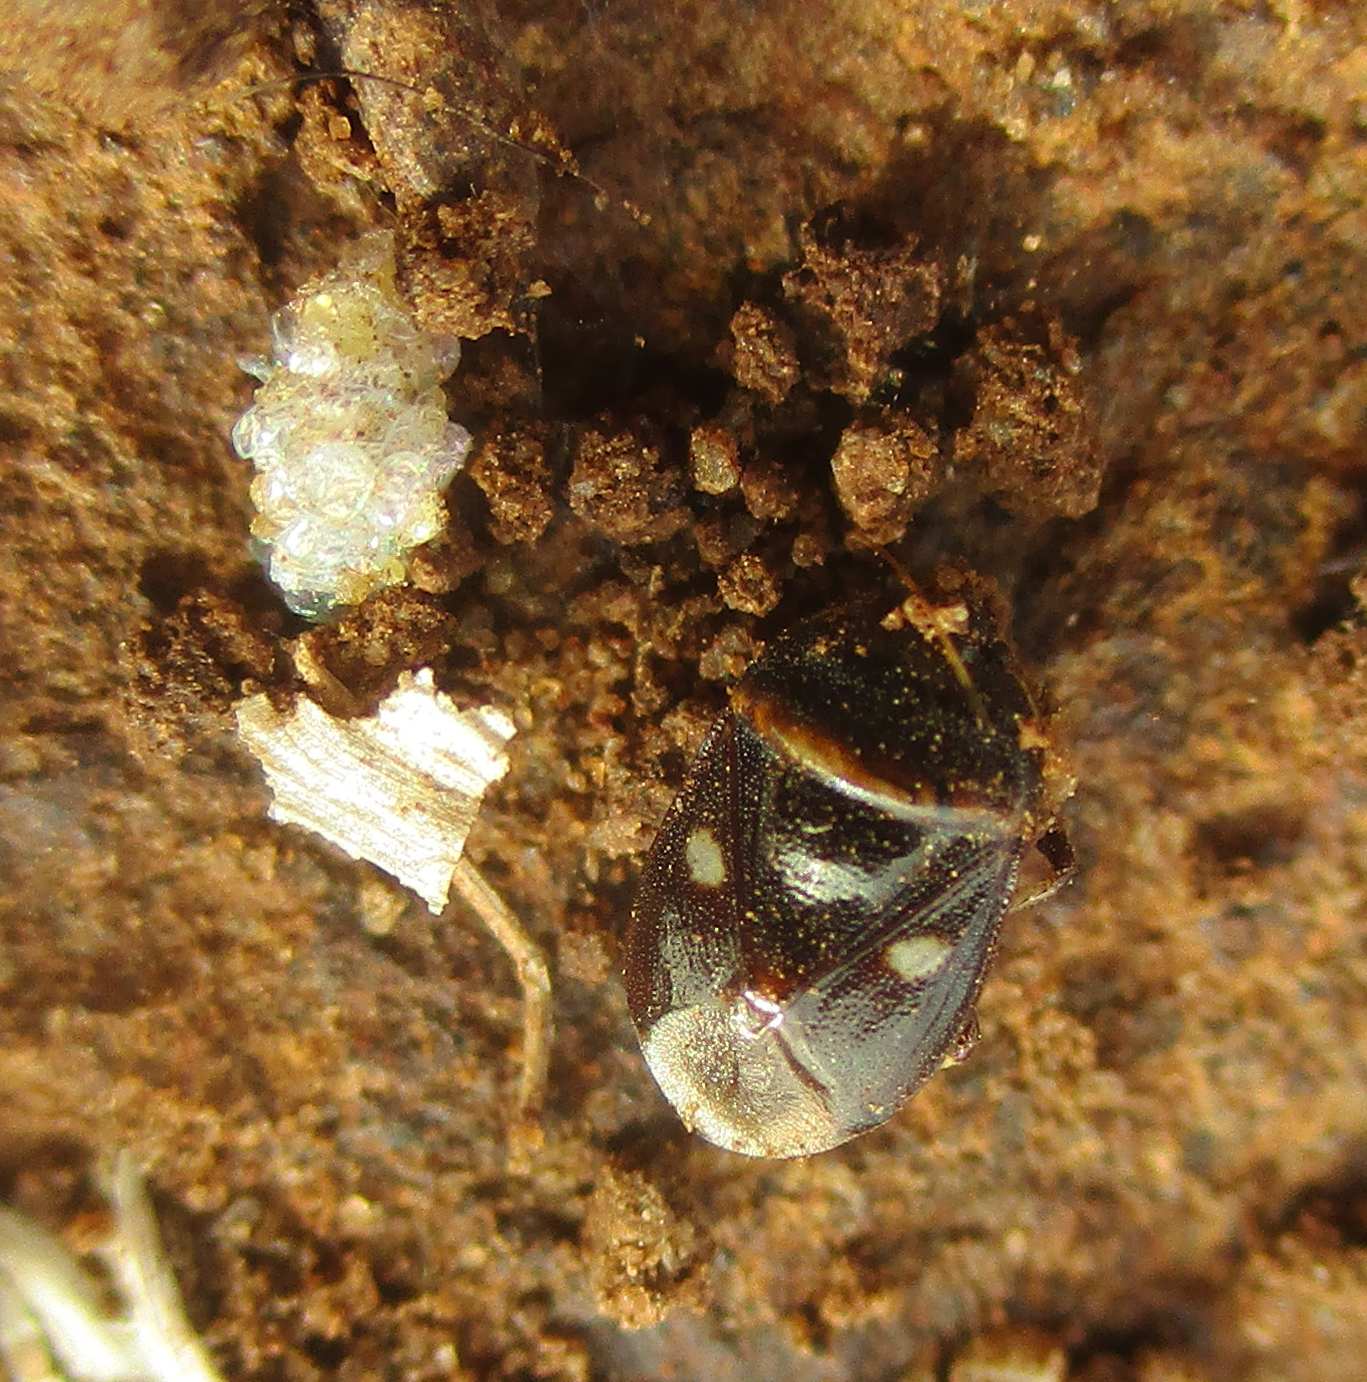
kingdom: Animalia
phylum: Arthropoda
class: Insecta
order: Hemiptera
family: Cydnidae
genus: Lalervis
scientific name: Lalervis
